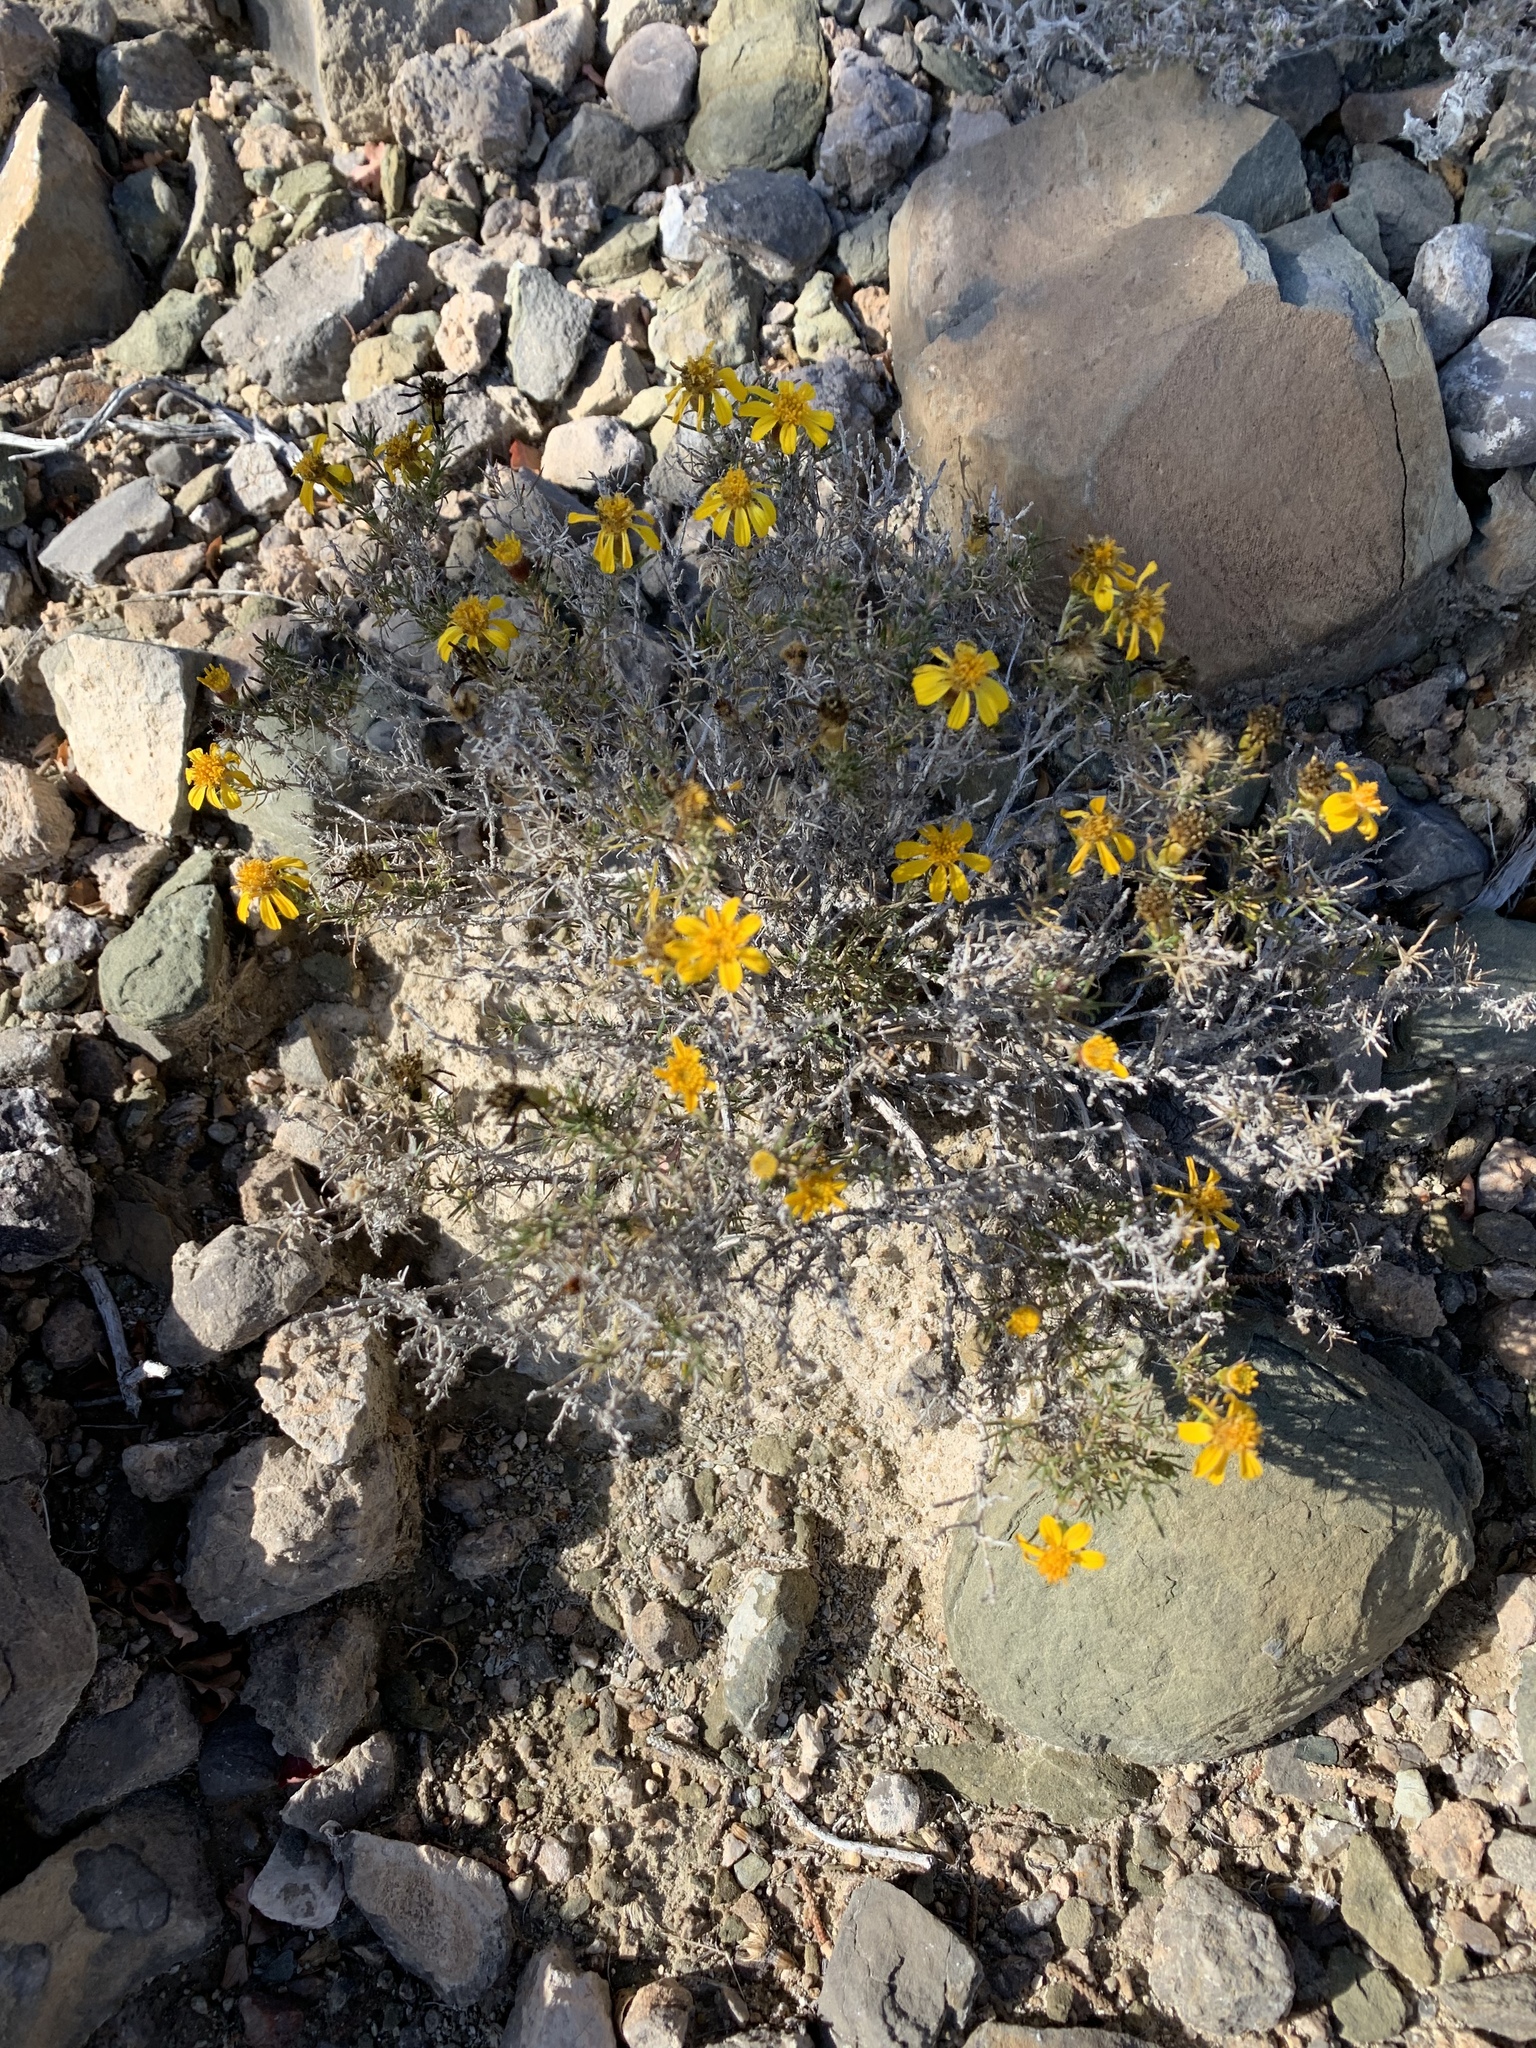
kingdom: Plantae
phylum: Tracheophyta
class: Magnoliopsida
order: Asterales
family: Asteraceae
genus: Thymophylla
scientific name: Thymophylla acerosa
